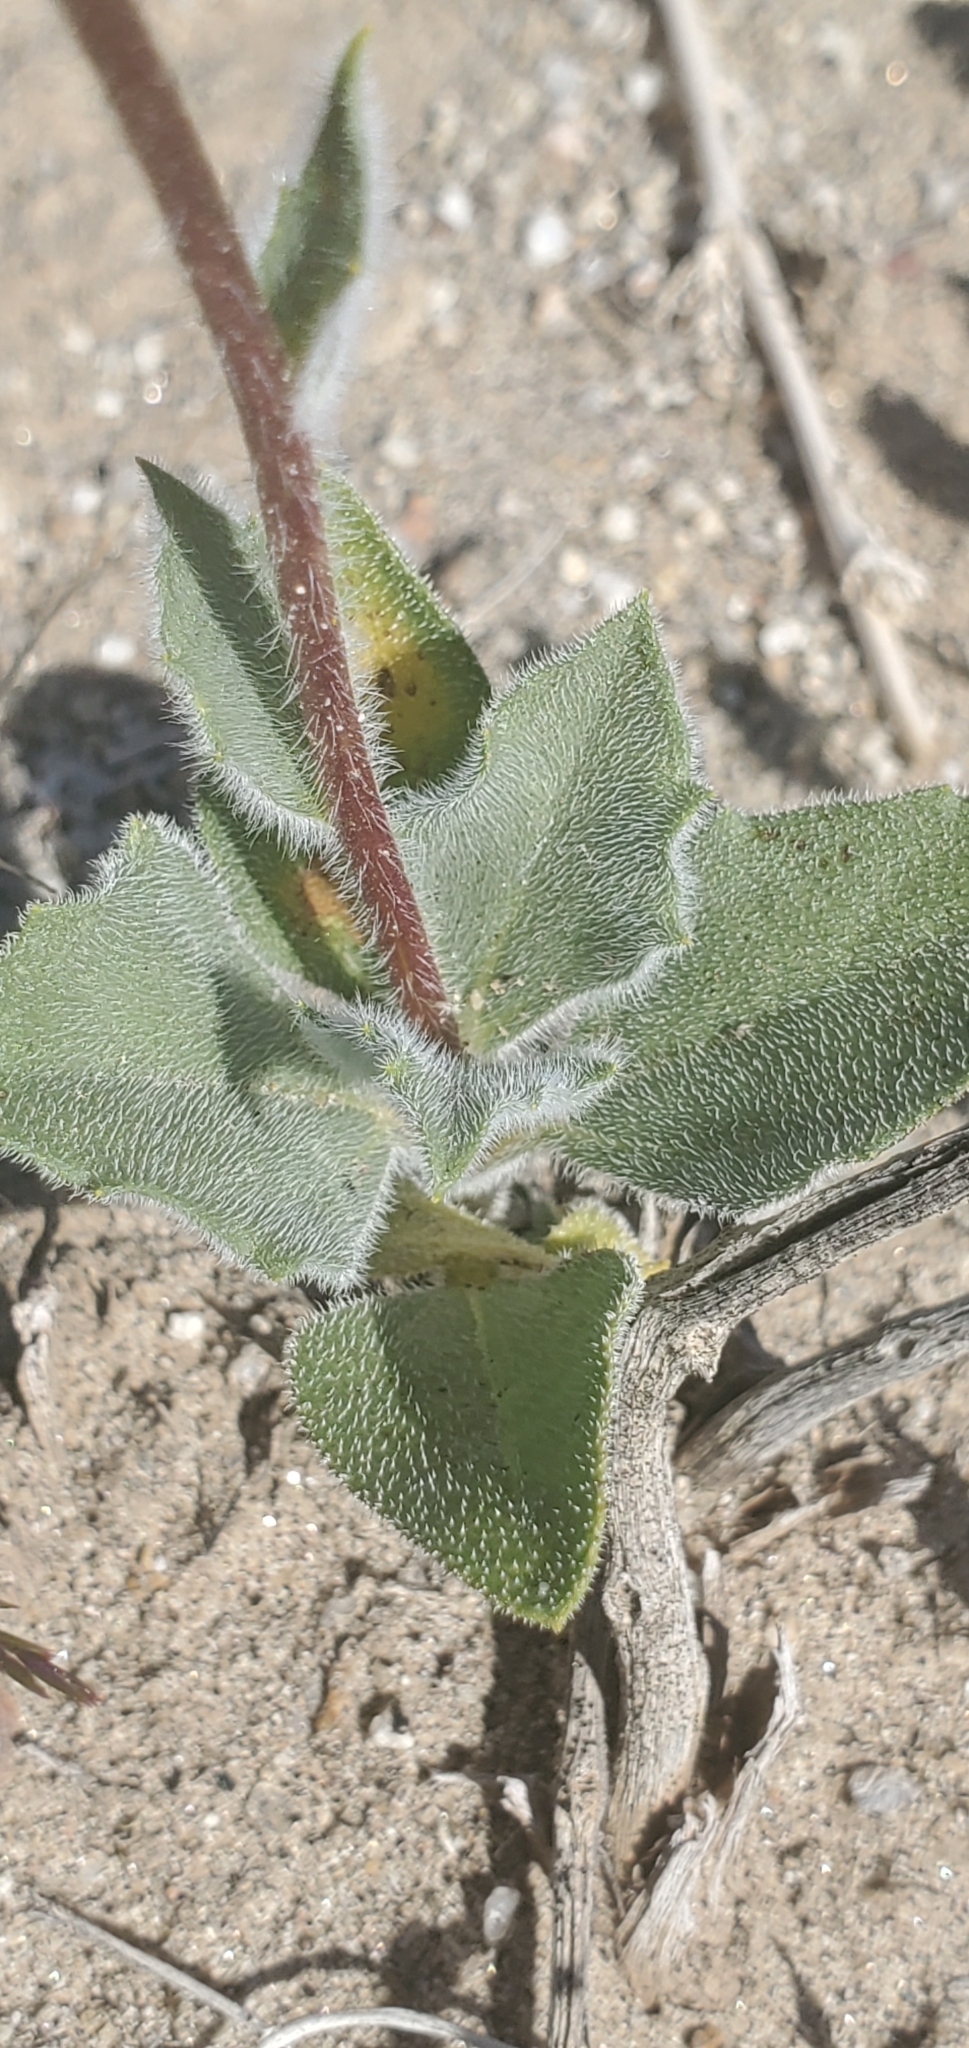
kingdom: Plantae
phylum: Tracheophyta
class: Magnoliopsida
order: Asterales
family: Asteraceae
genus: Geraea
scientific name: Geraea canescens
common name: Desert-gold
